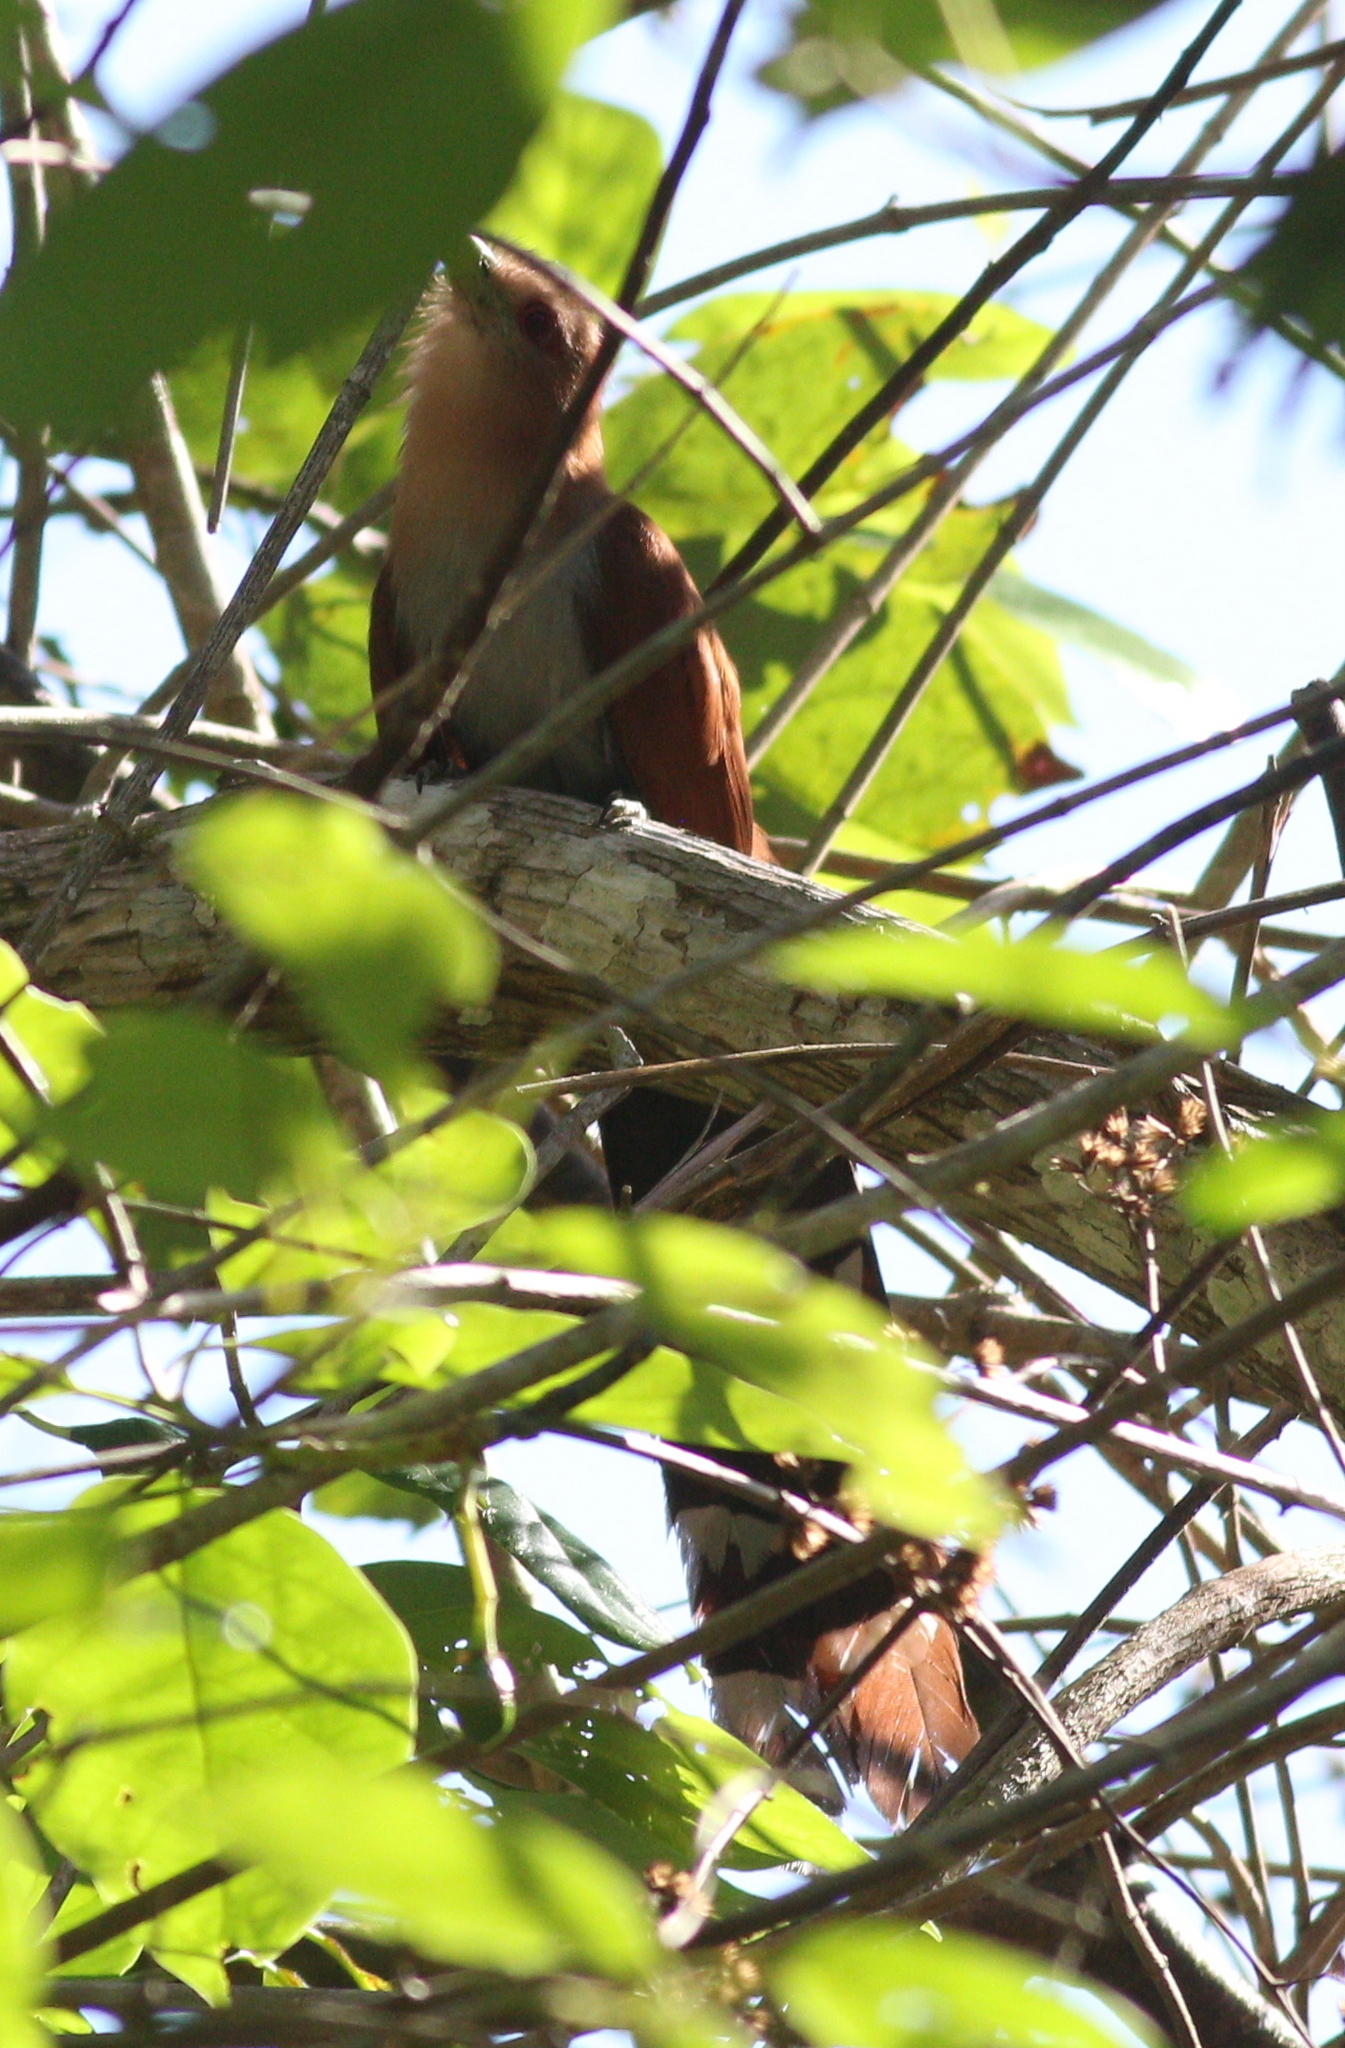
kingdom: Animalia
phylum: Chordata
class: Aves
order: Cuculiformes
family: Cuculidae
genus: Piaya
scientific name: Piaya cayana
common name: Squirrel cuckoo
